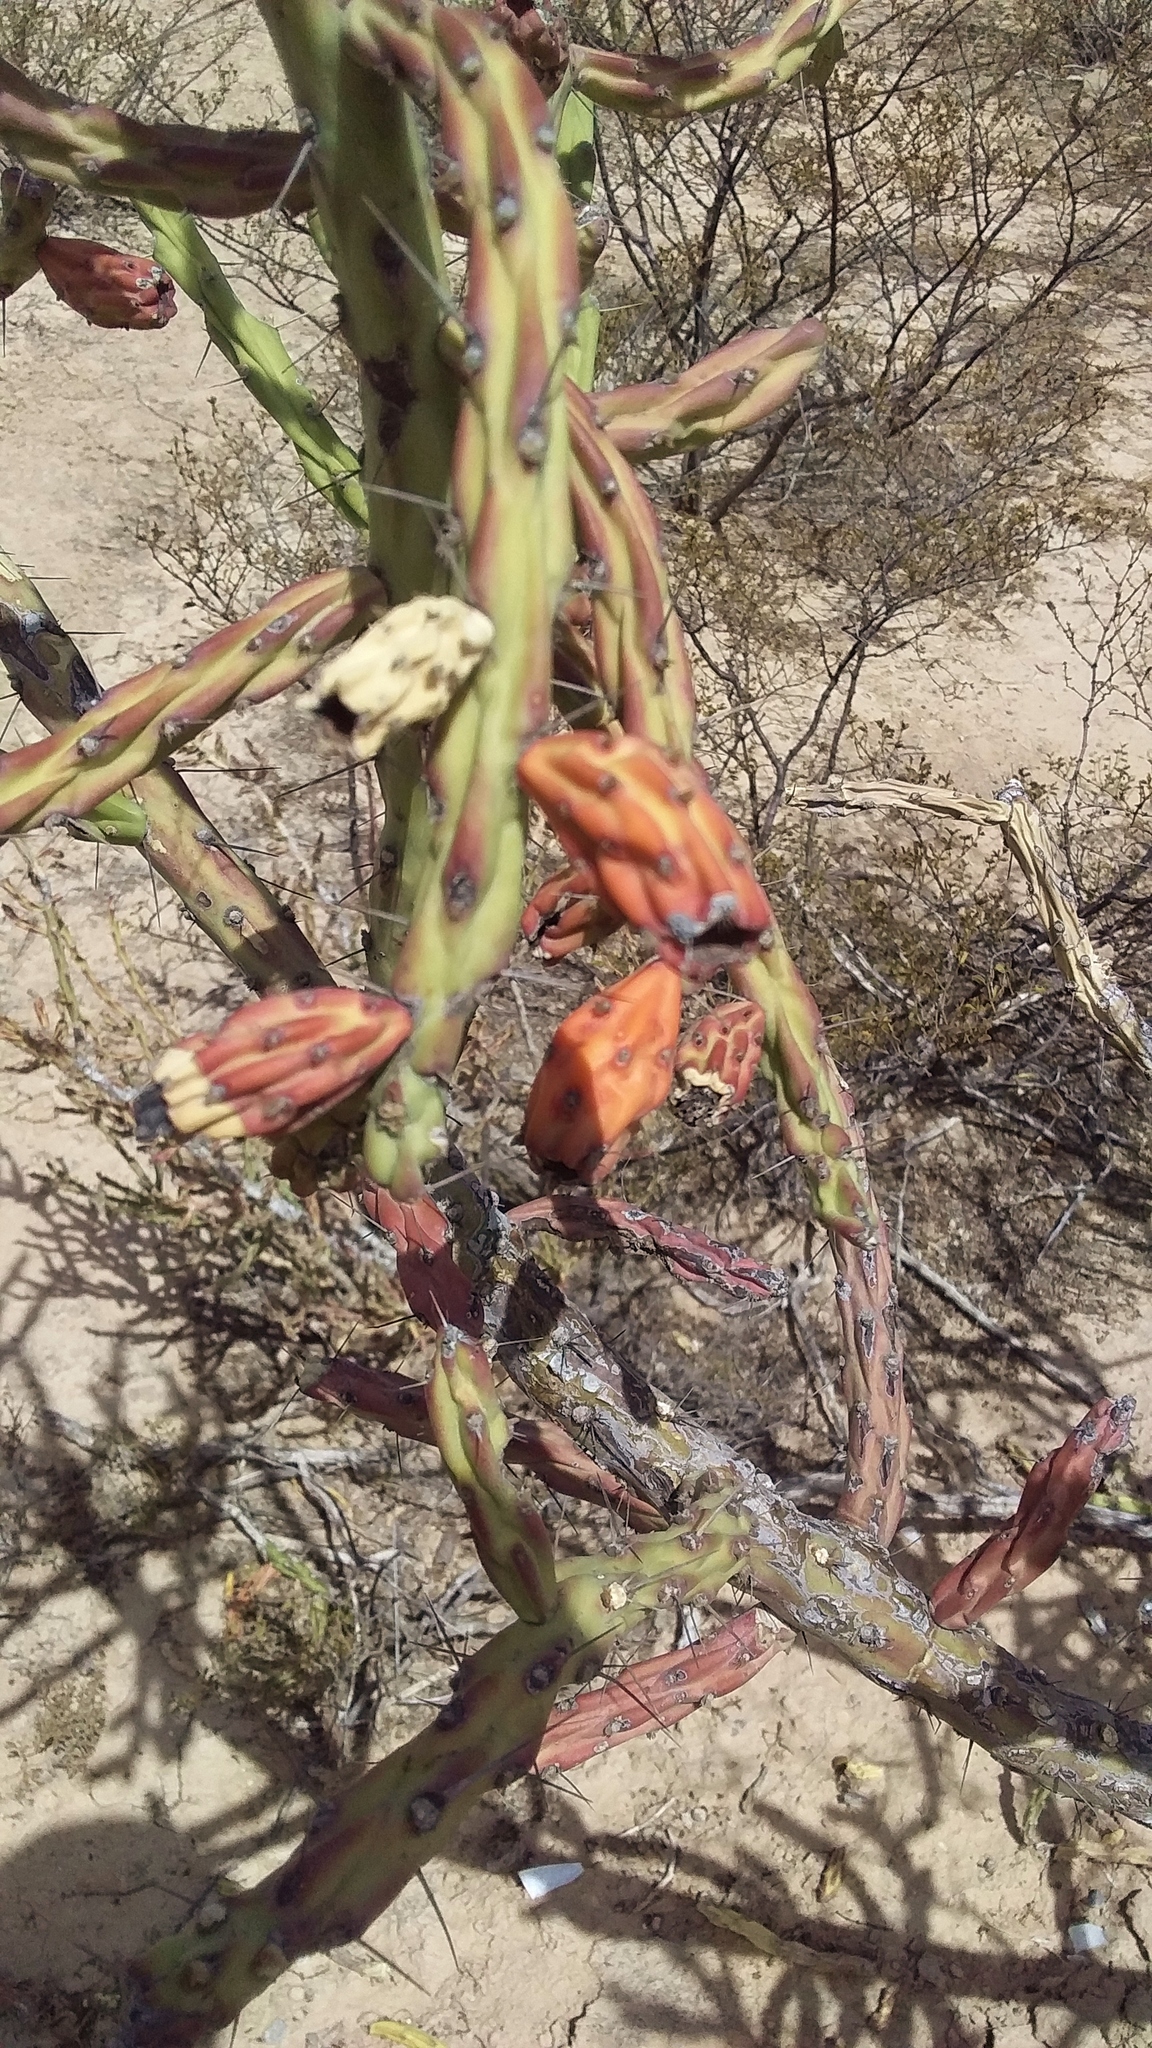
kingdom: Plantae
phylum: Tracheophyta
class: Magnoliopsida
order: Caryophyllales
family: Cactaceae
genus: Cylindropuntia
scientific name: Cylindropuntia kleiniae
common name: Klein's cholla
